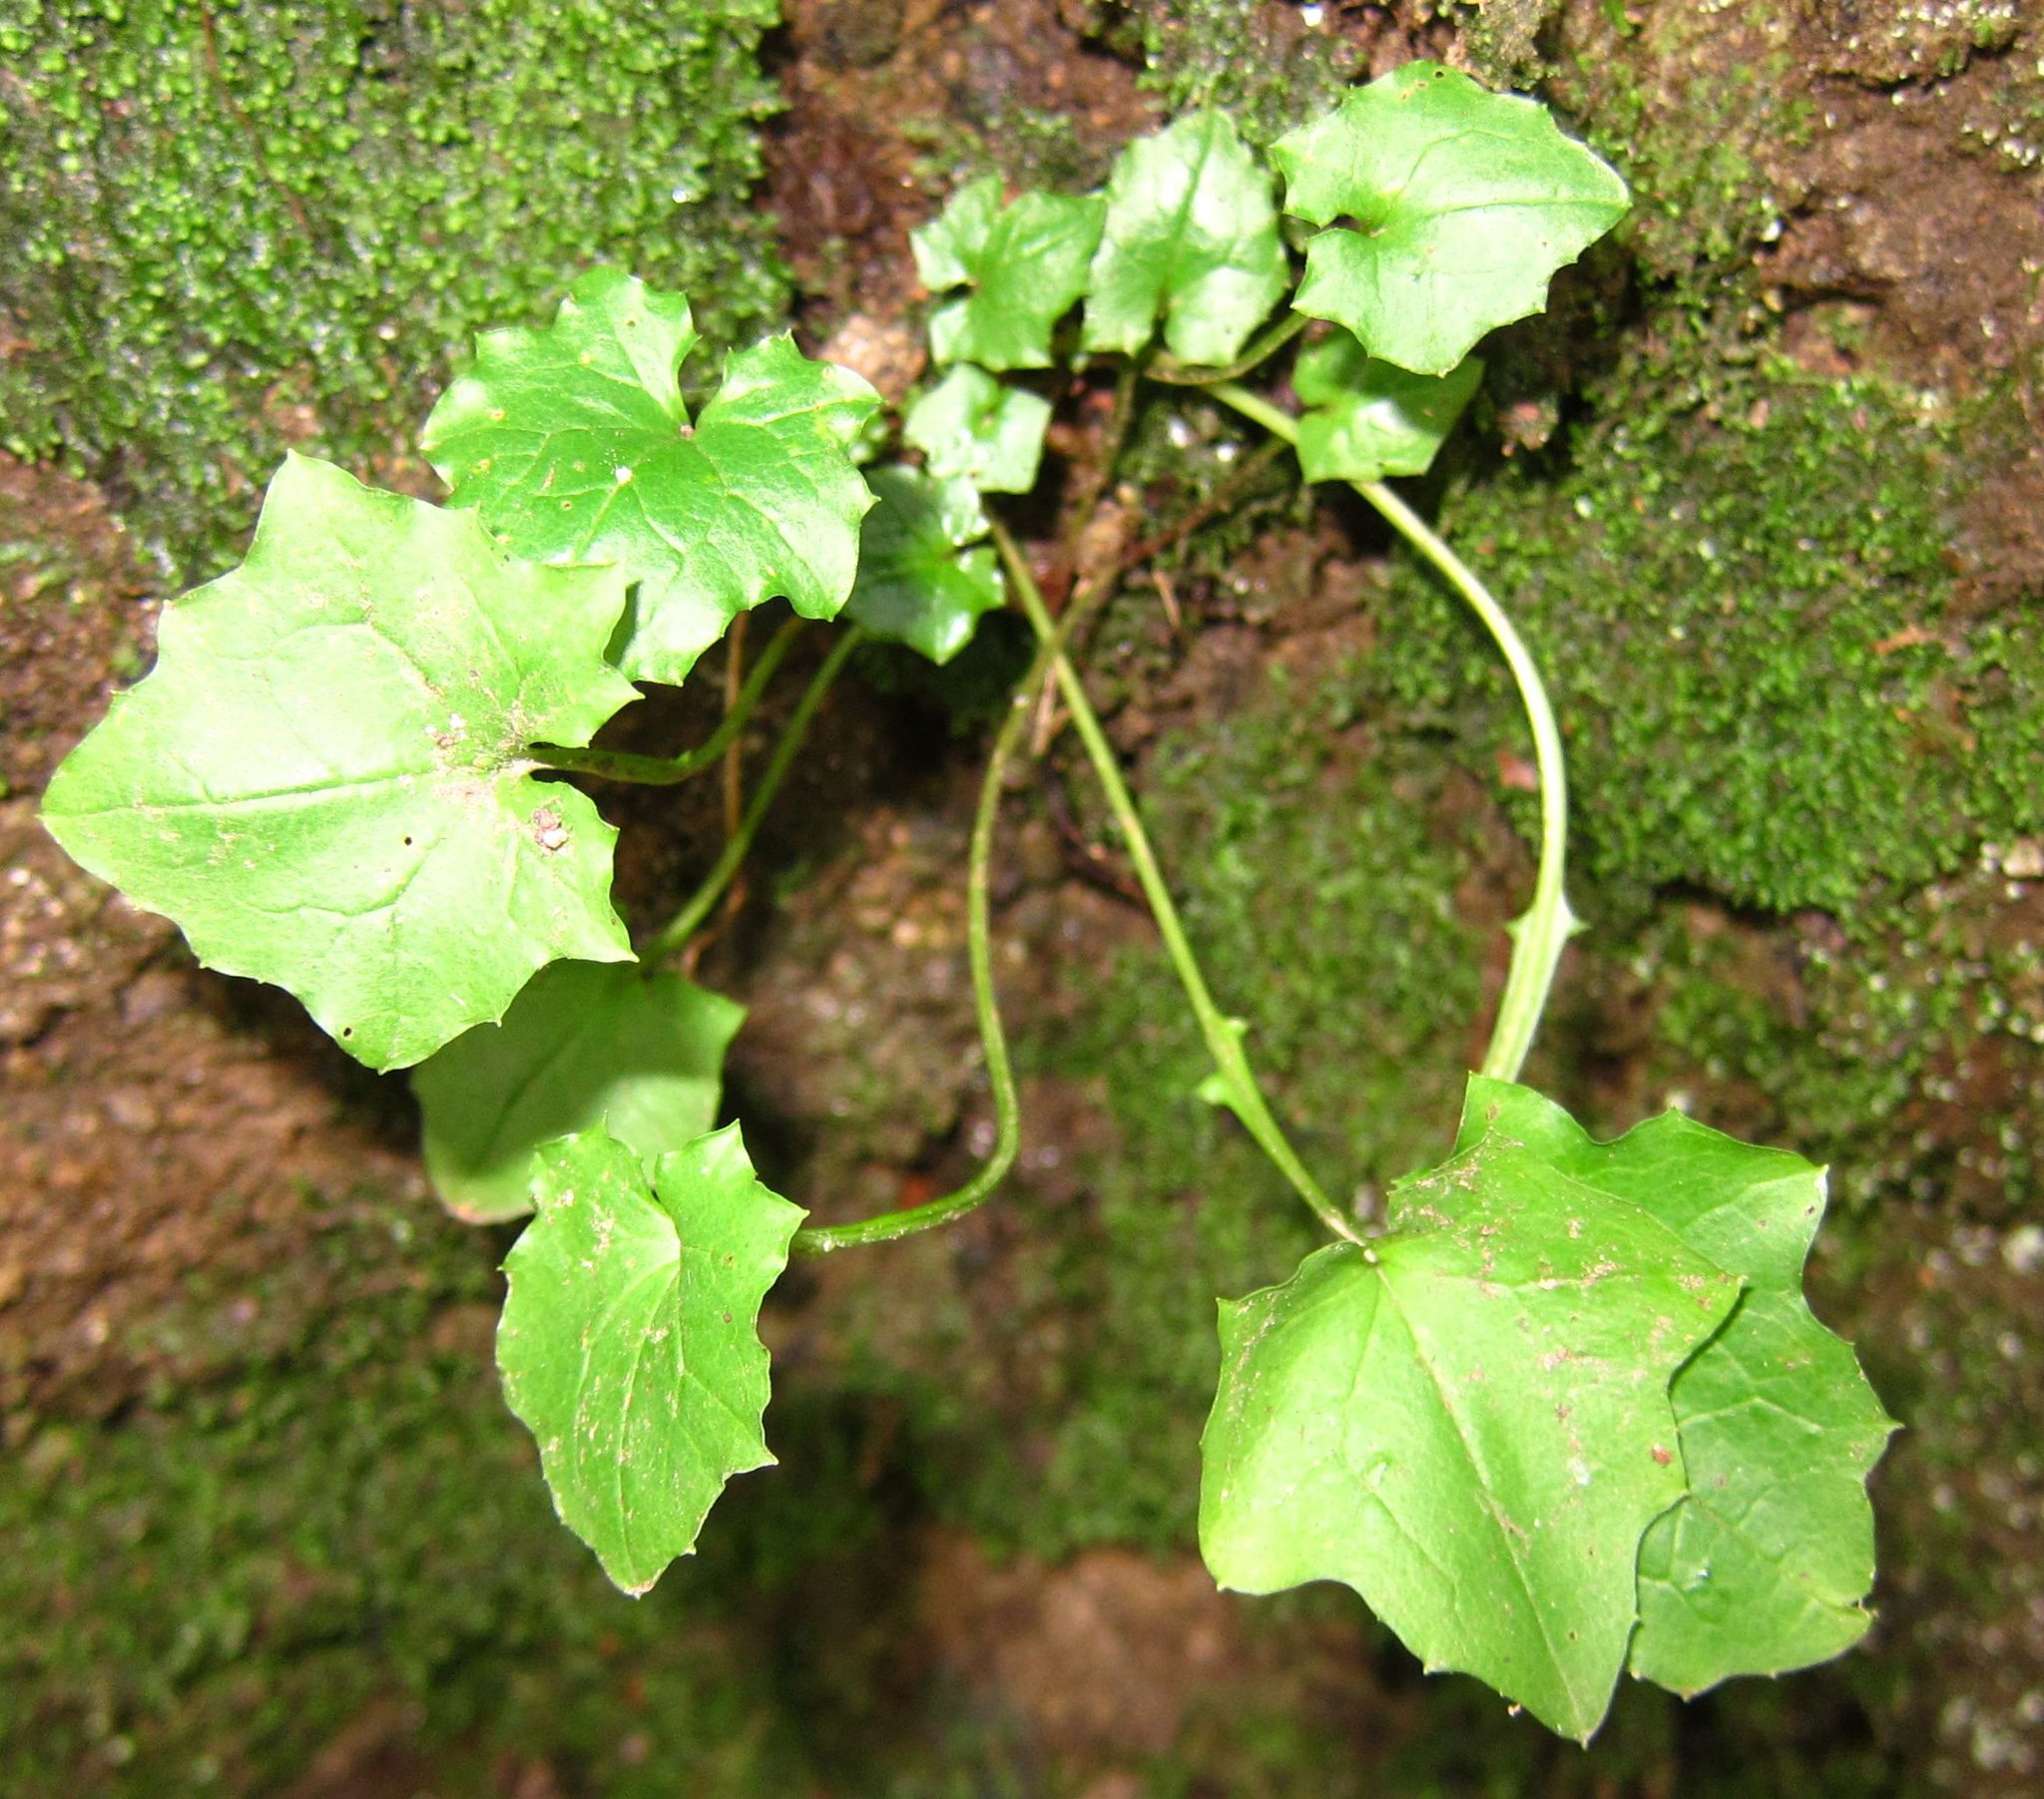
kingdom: Plantae
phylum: Tracheophyta
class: Magnoliopsida
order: Asterales
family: Asteraceae
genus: Mycelis
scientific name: Mycelis muralis
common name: Wall lettuce
